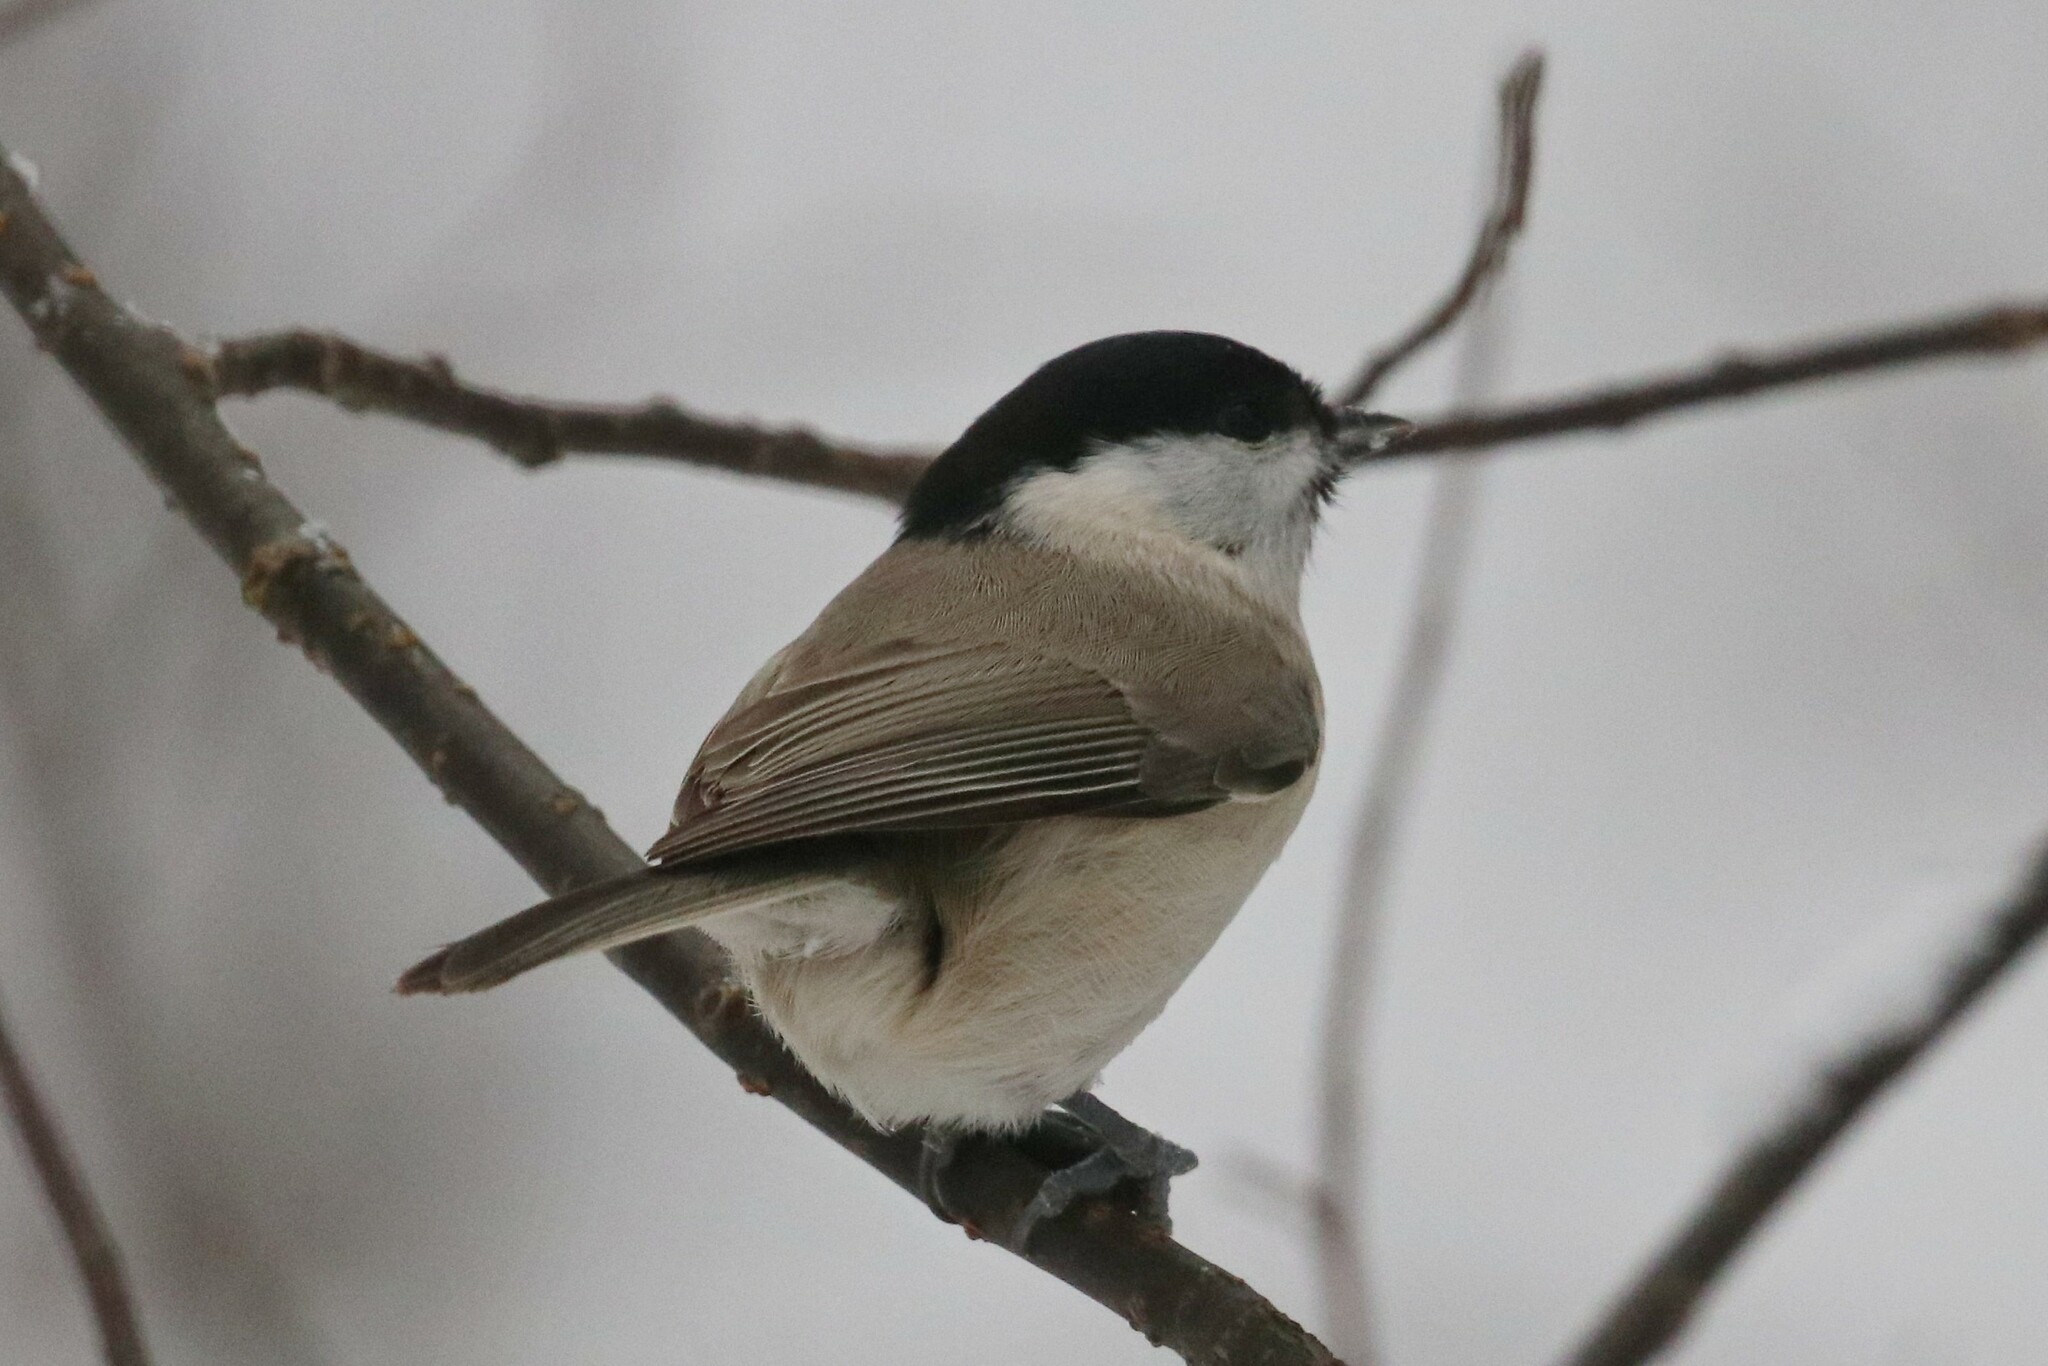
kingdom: Animalia
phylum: Chordata
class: Aves
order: Passeriformes
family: Paridae
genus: Poecile
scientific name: Poecile palustris
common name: Marsh tit
